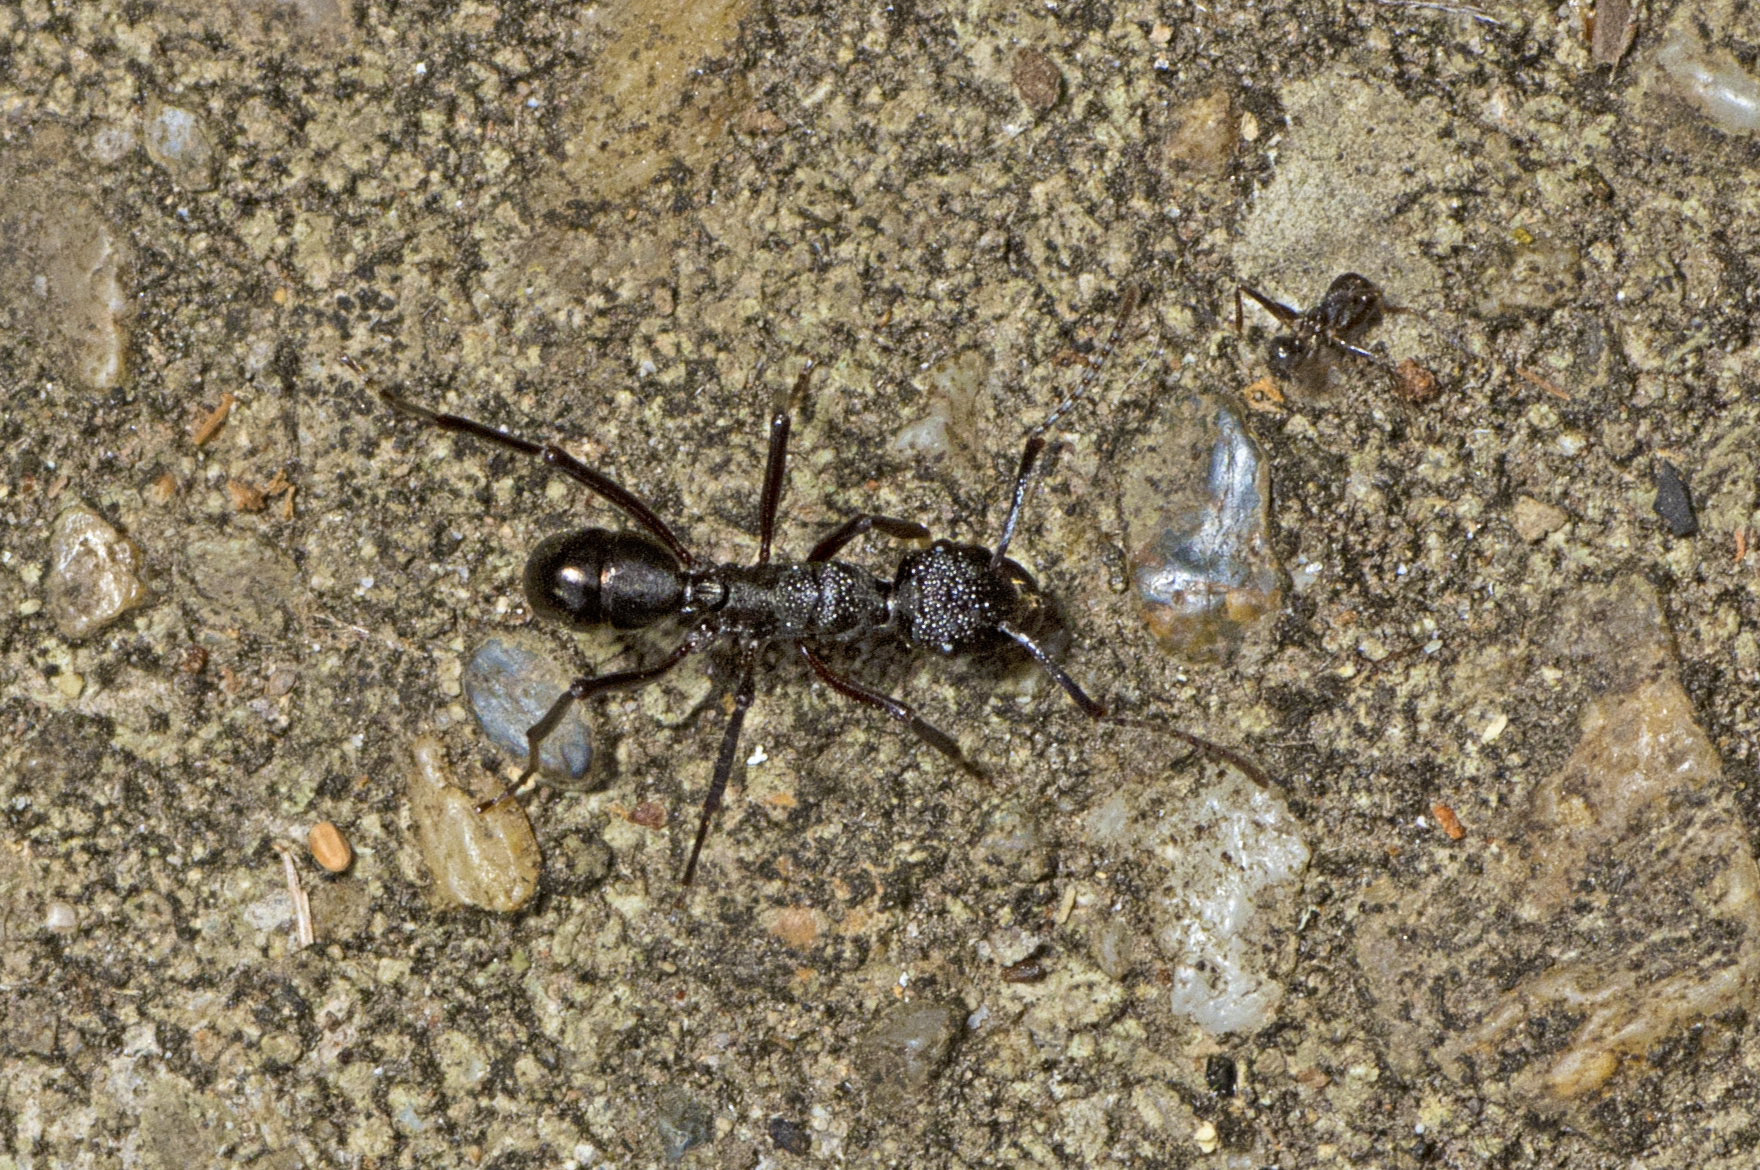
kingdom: Animalia
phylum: Arthropoda
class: Insecta
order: Hymenoptera
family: Formicidae
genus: Rhytidoponera
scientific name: Rhytidoponera nodifera
